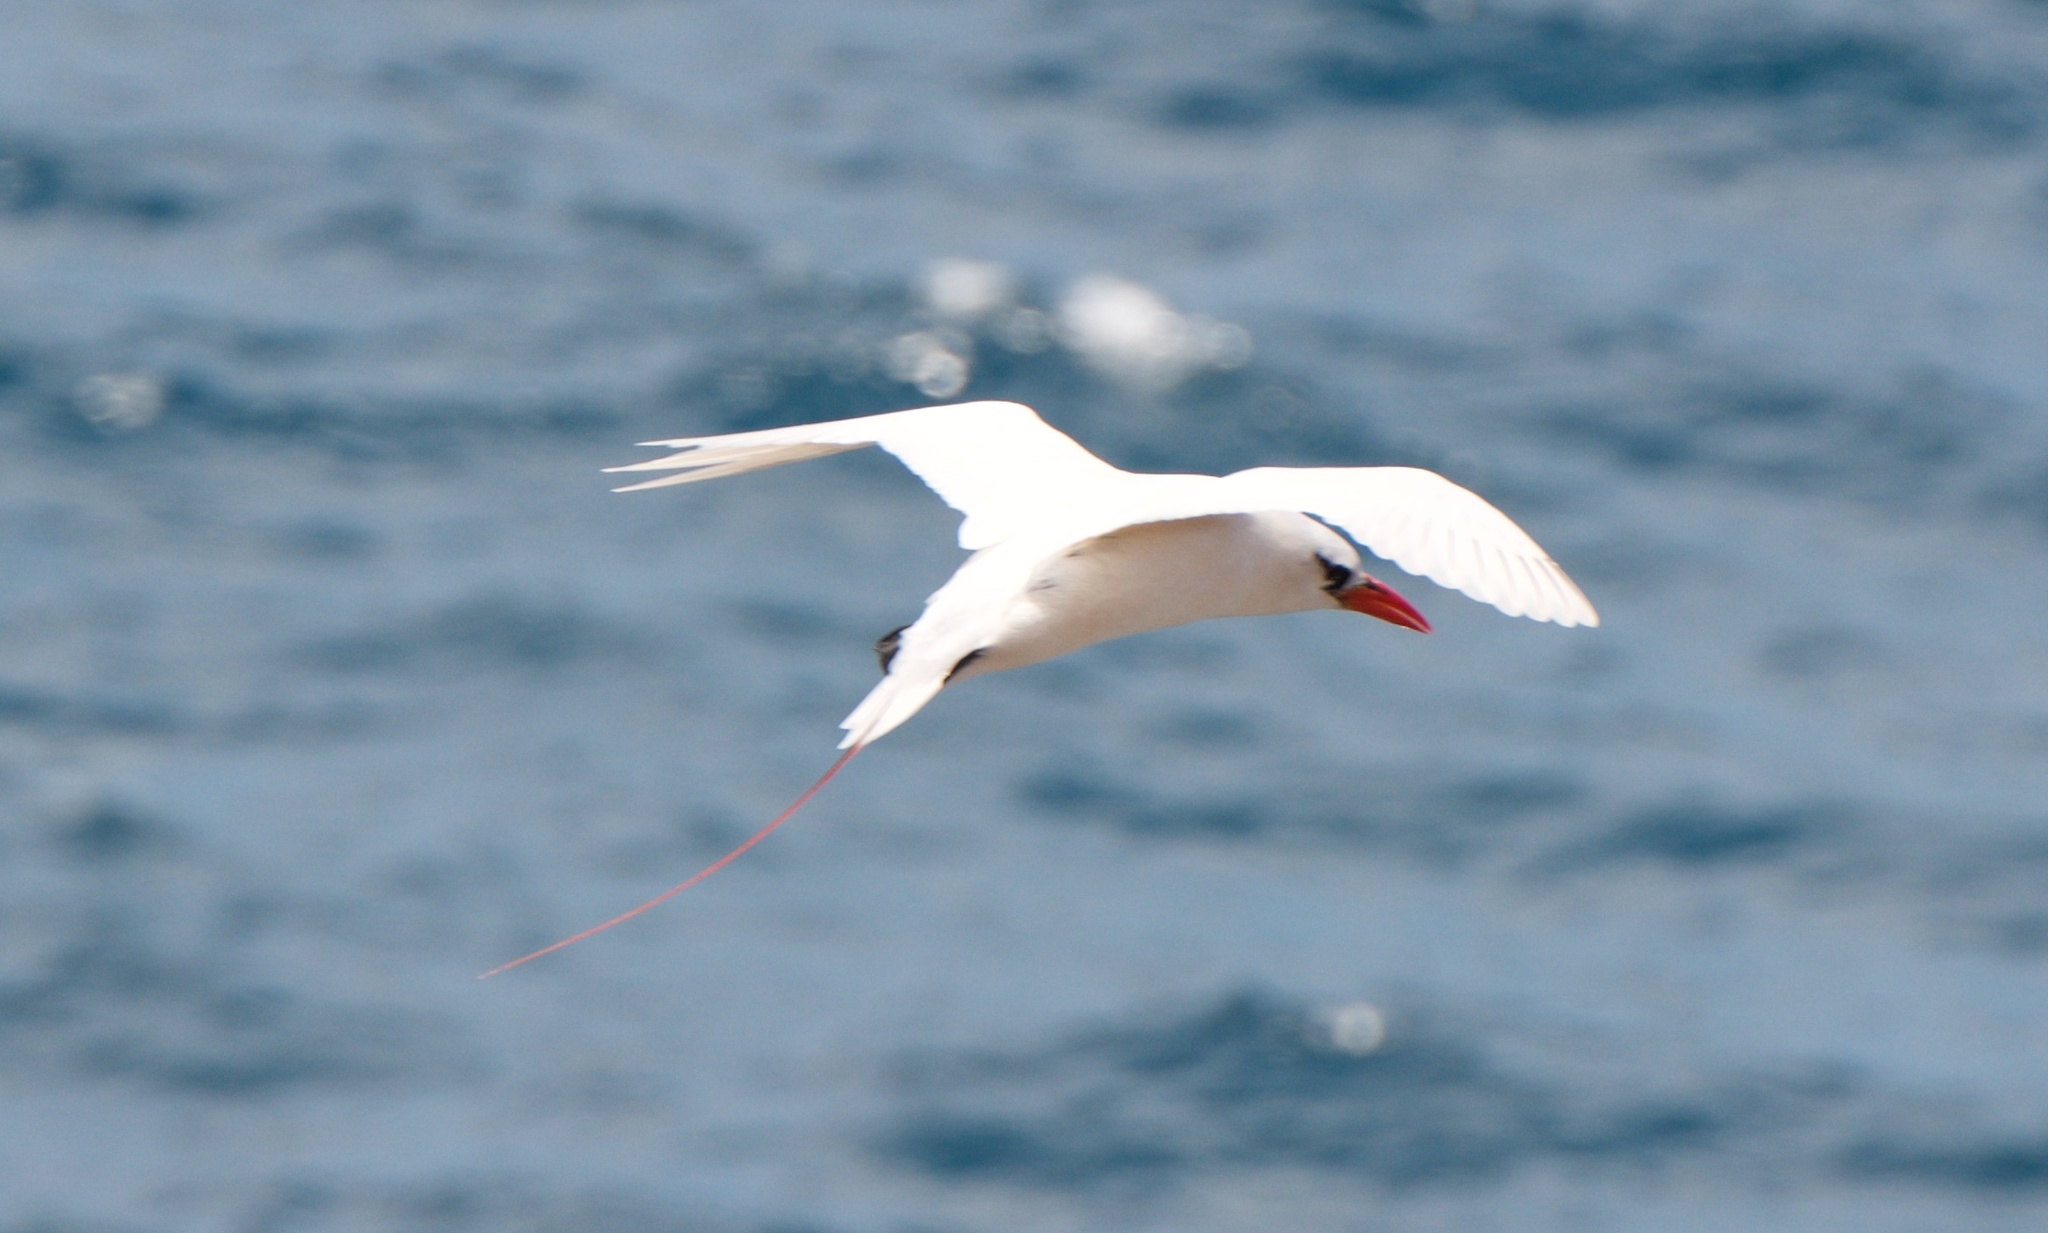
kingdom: Animalia
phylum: Chordata
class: Aves
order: Phaethontiformes
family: Phaethontidae
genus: Phaethon
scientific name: Phaethon rubricauda
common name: Red-tailed tropicbird
